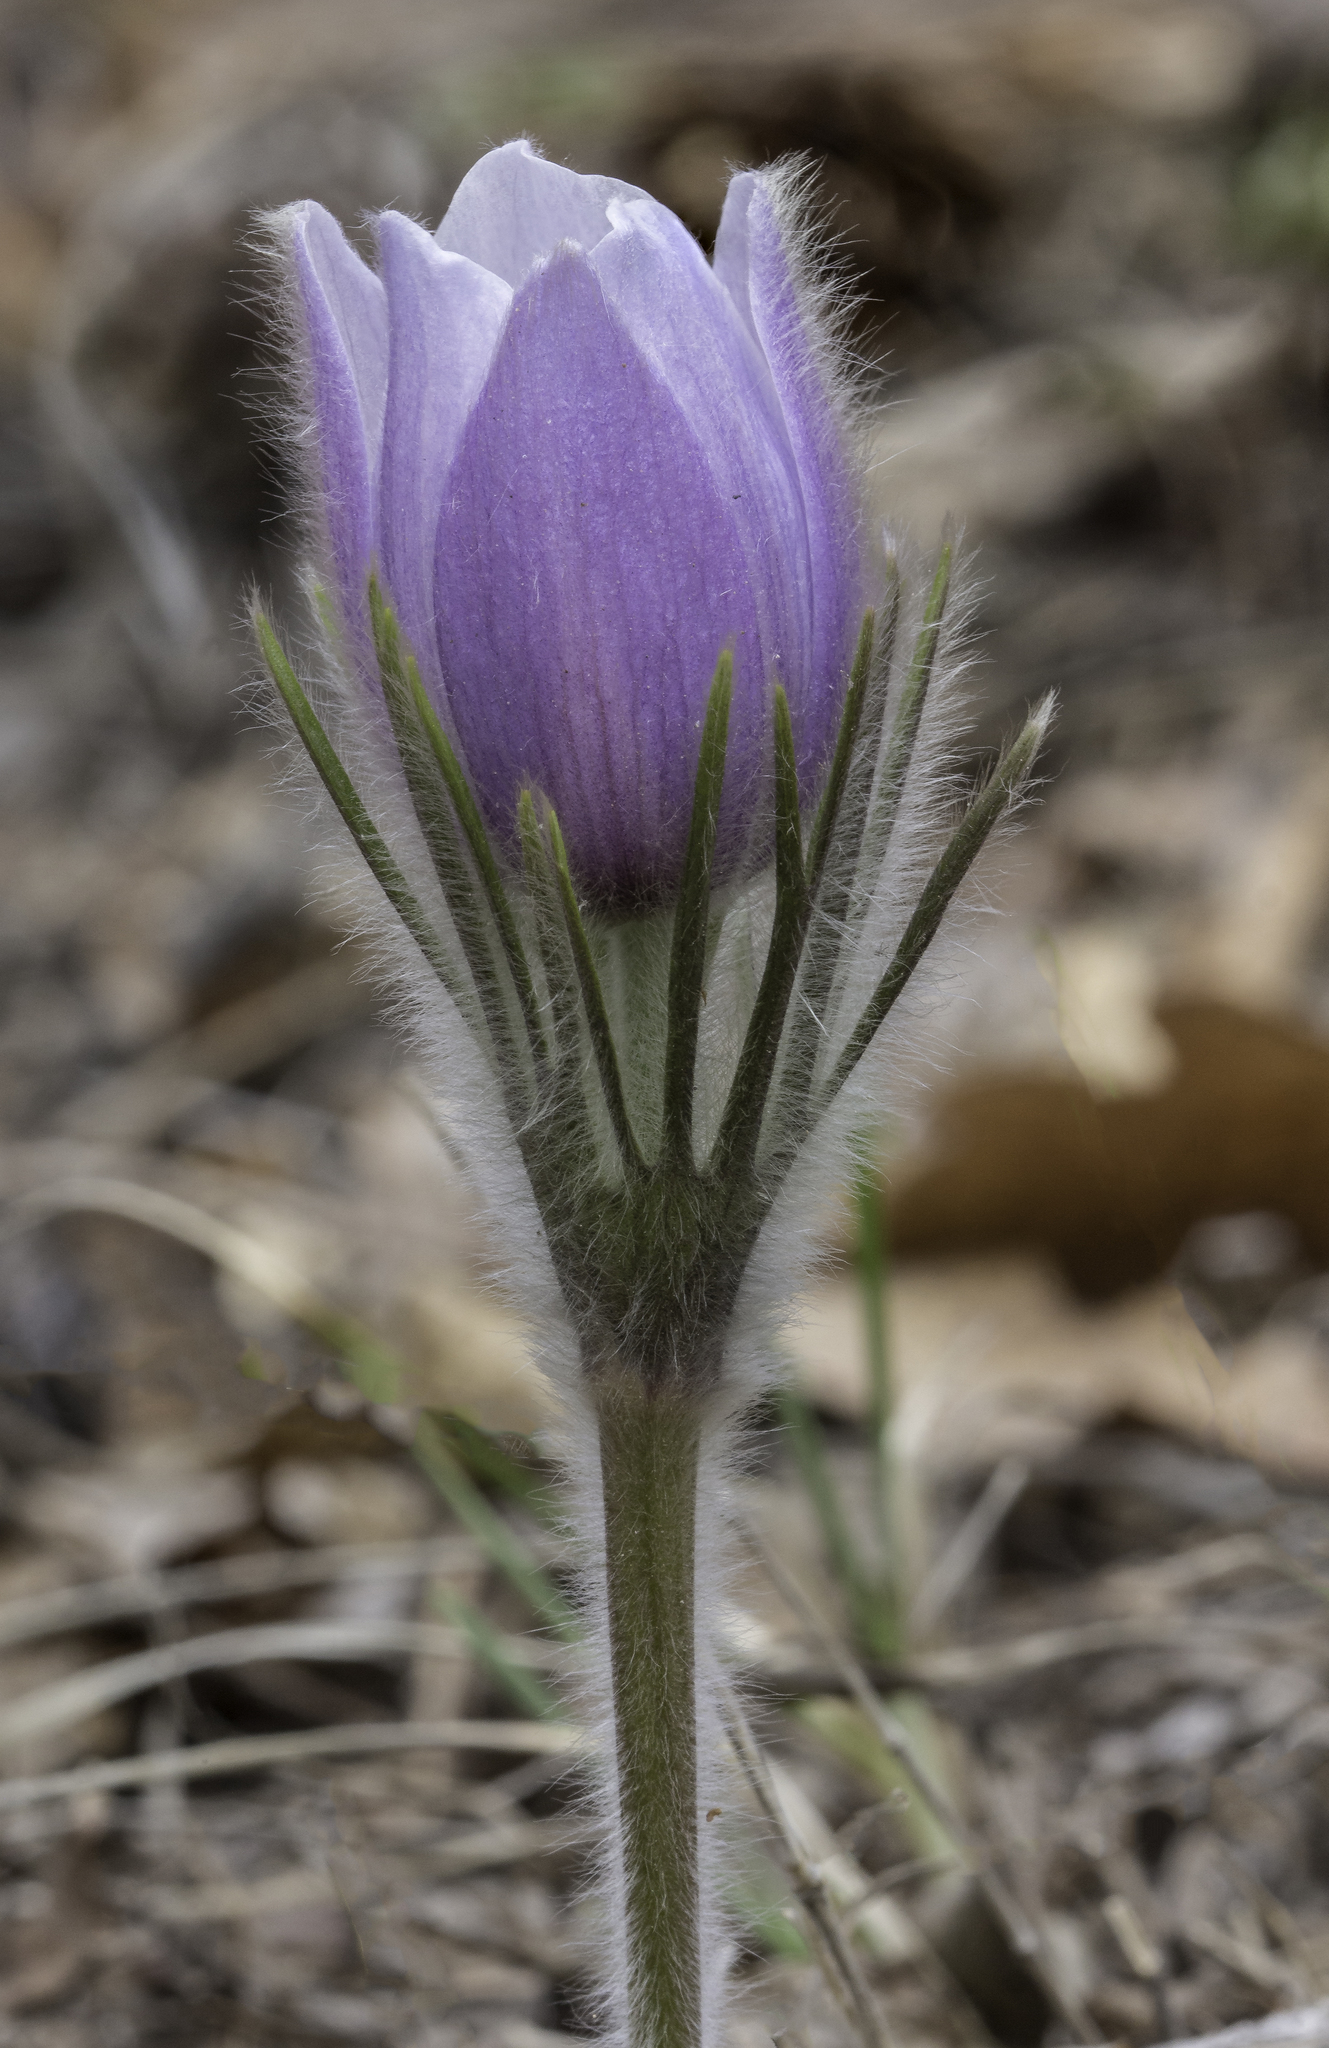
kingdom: Plantae
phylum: Tracheophyta
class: Magnoliopsida
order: Ranunculales
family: Ranunculaceae
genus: Pulsatilla
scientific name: Pulsatilla nuttalliana
